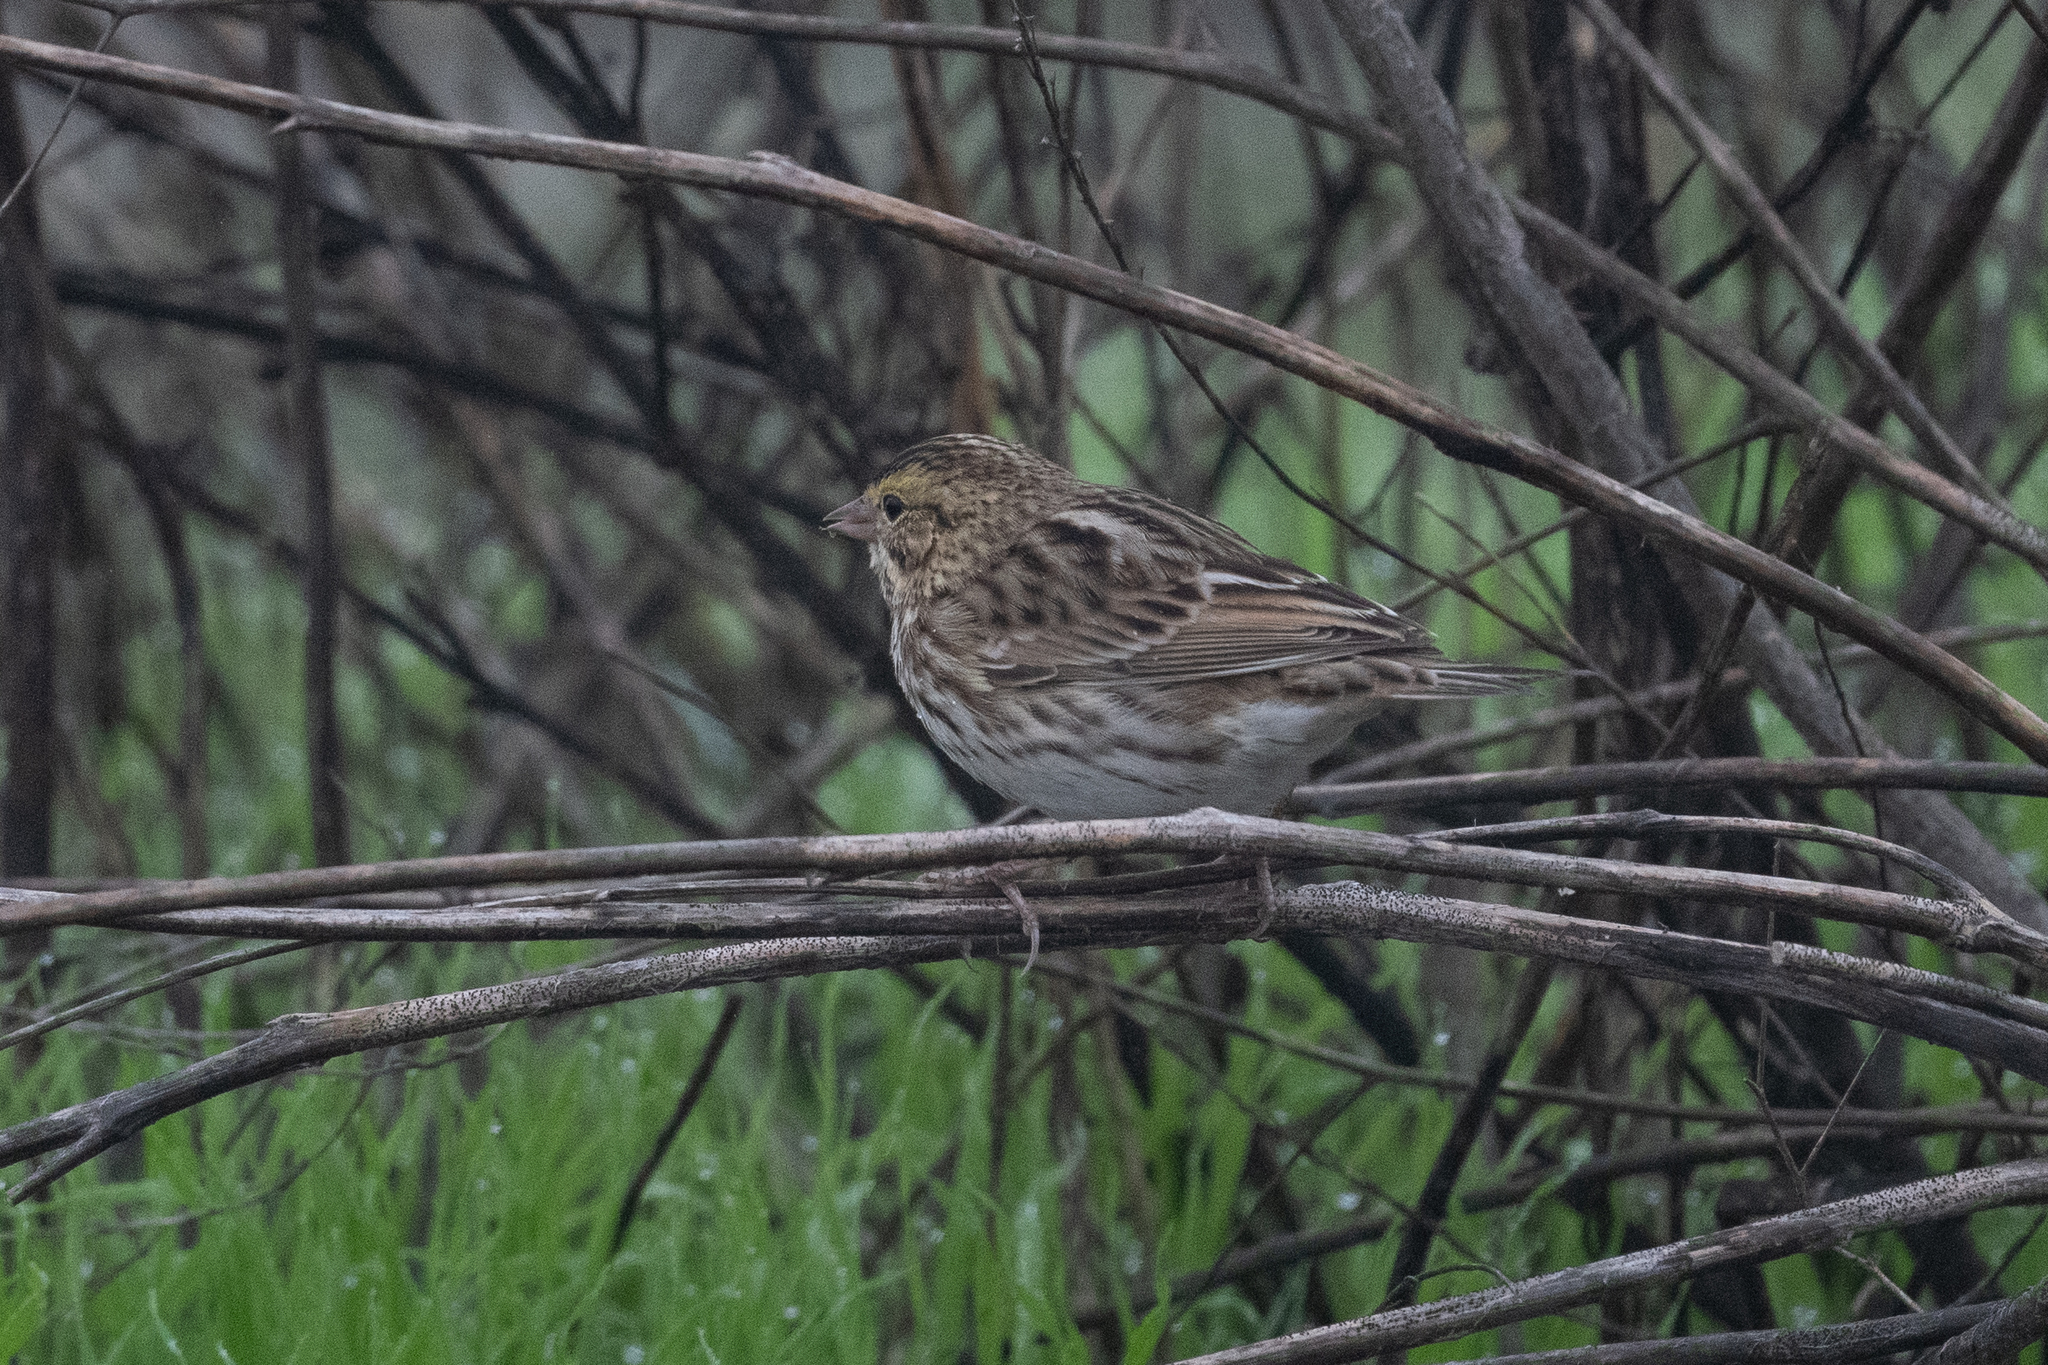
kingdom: Animalia
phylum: Chordata
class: Aves
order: Passeriformes
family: Passerellidae
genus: Passerculus
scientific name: Passerculus sandwichensis
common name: Savannah sparrow
